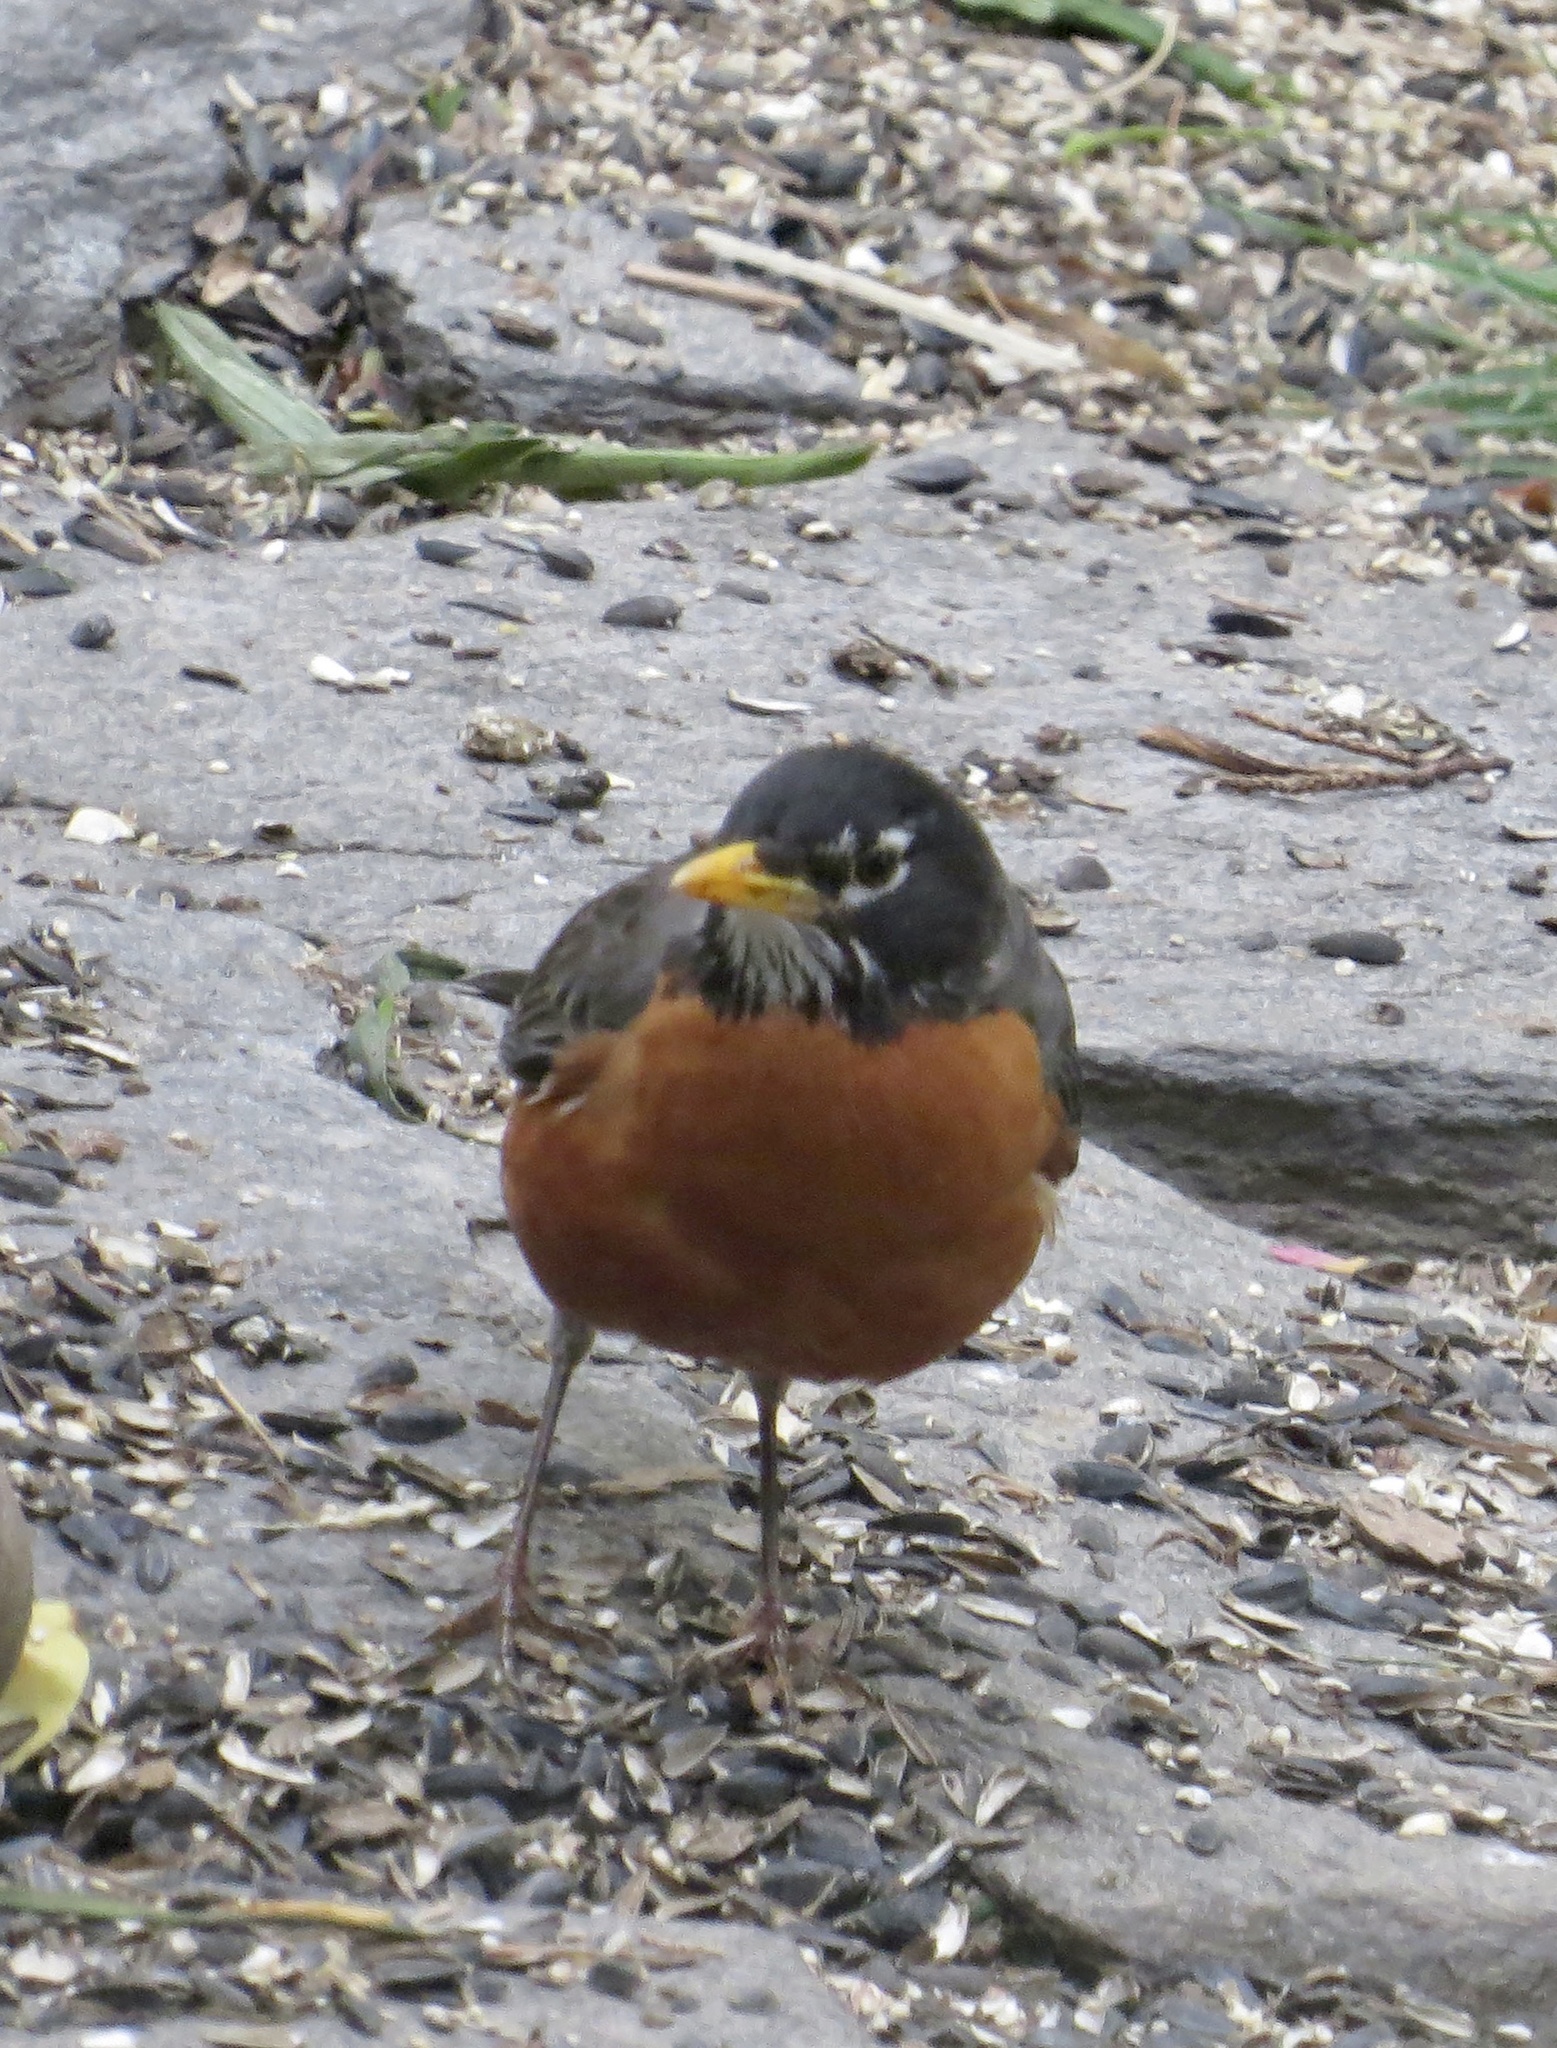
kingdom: Animalia
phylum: Chordata
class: Aves
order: Passeriformes
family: Turdidae
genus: Turdus
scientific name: Turdus migratorius
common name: American robin
